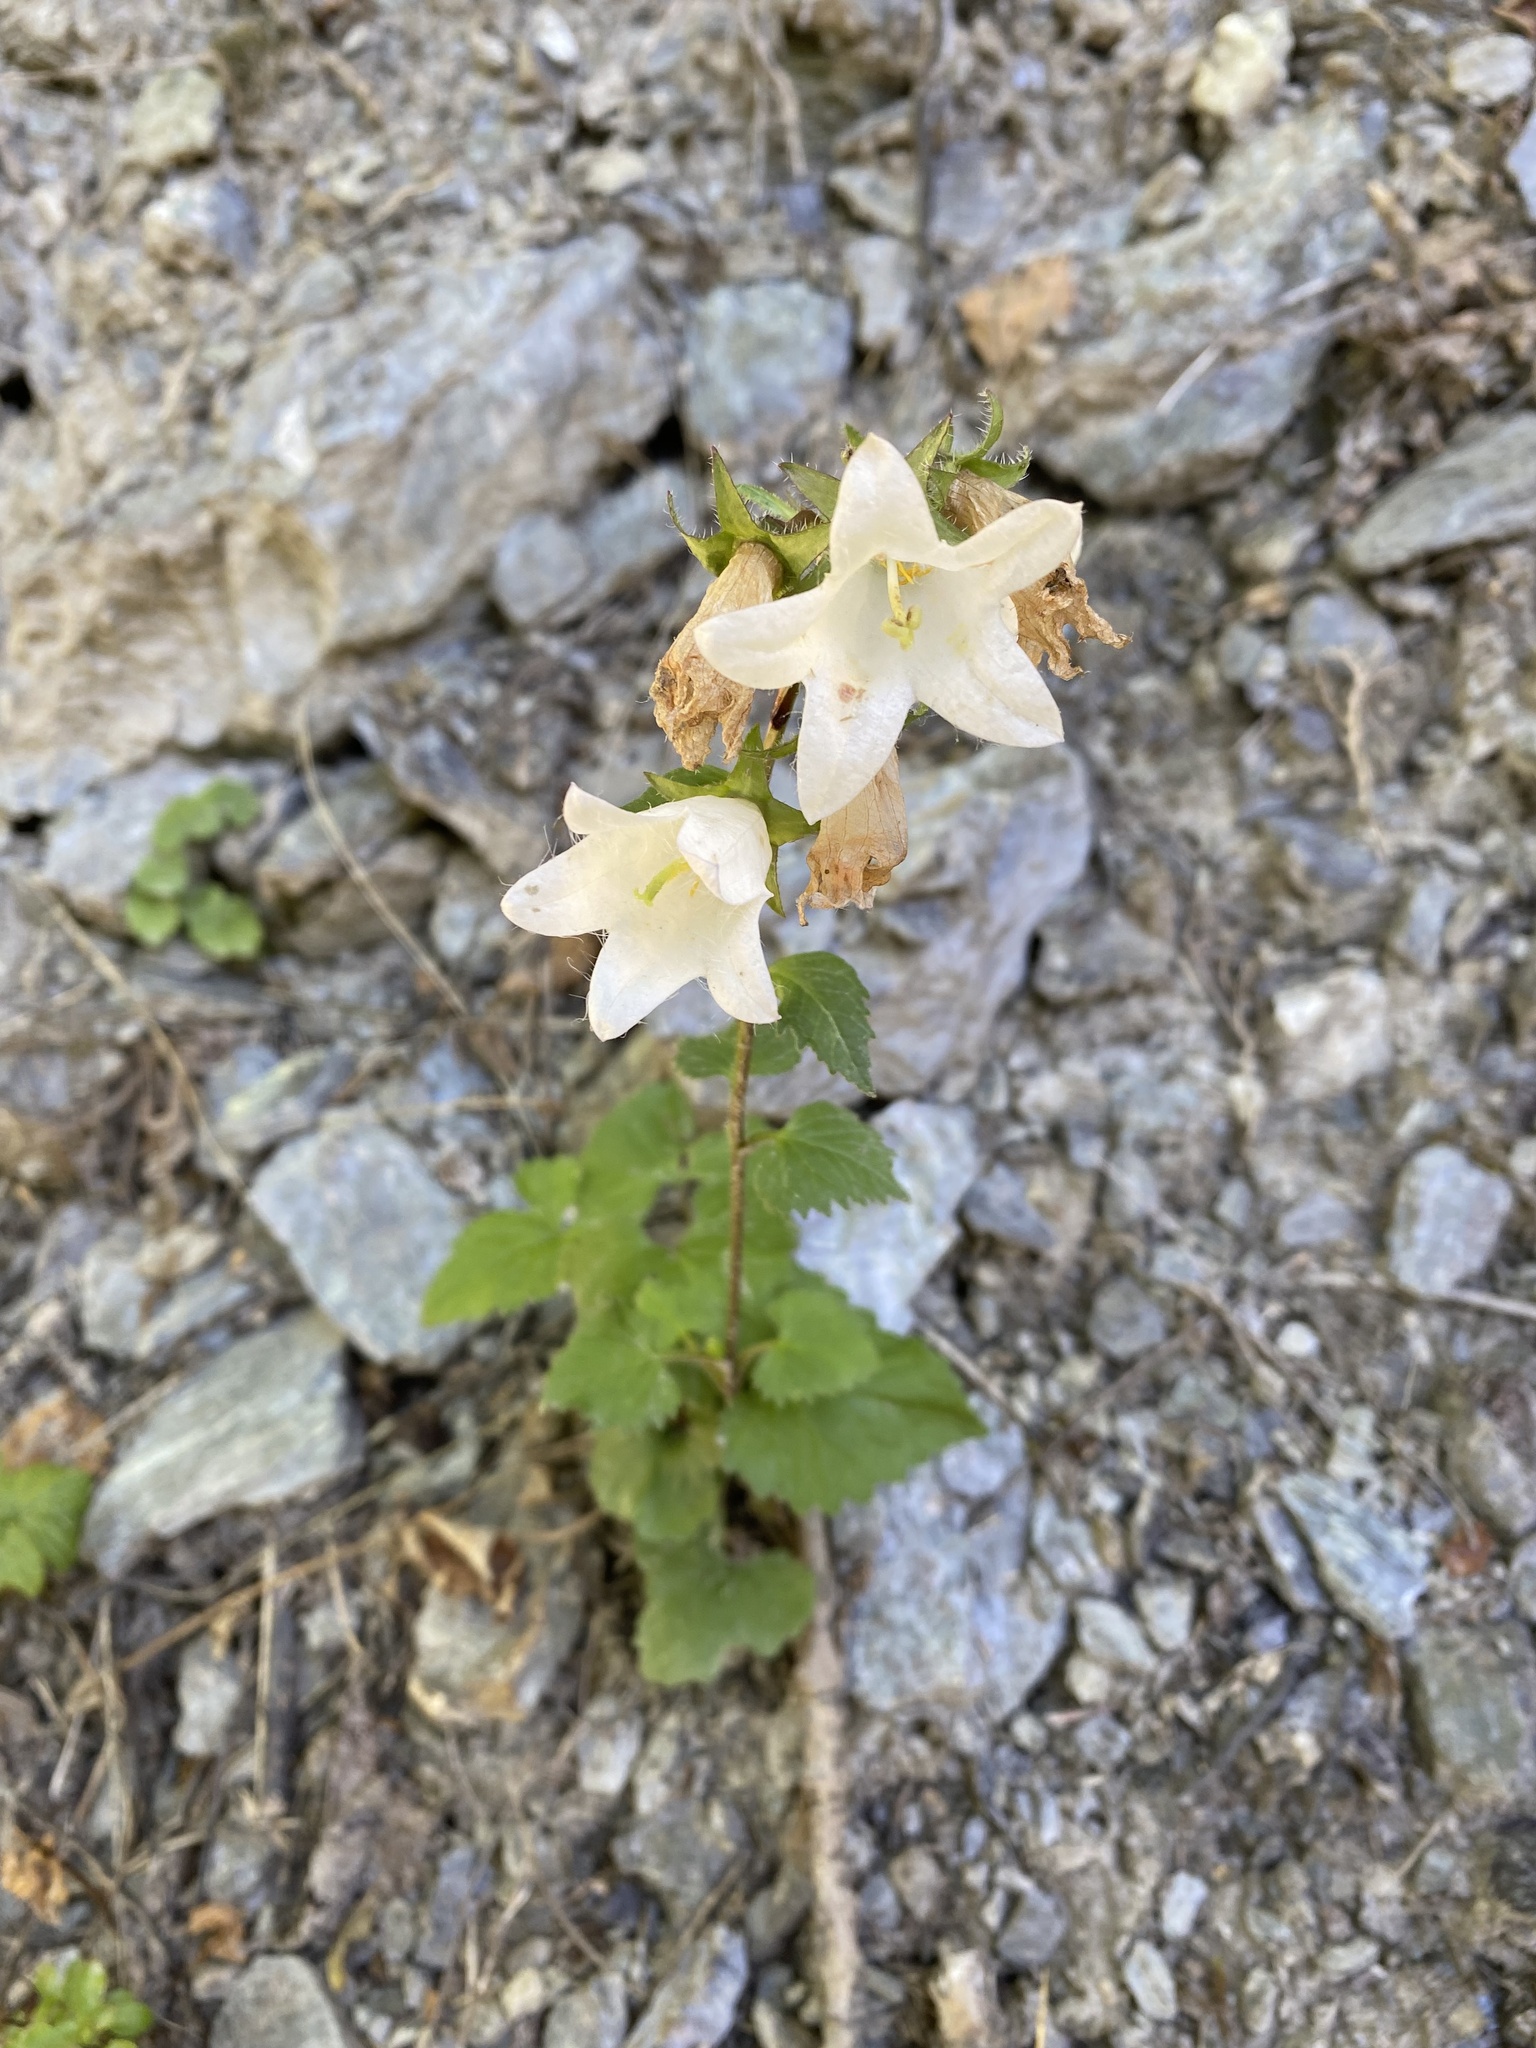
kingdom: Plantae
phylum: Tracheophyta
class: Magnoliopsida
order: Asterales
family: Campanulaceae
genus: Campanula
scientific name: Campanula trachelium
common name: Nettle-leaved bellflower
